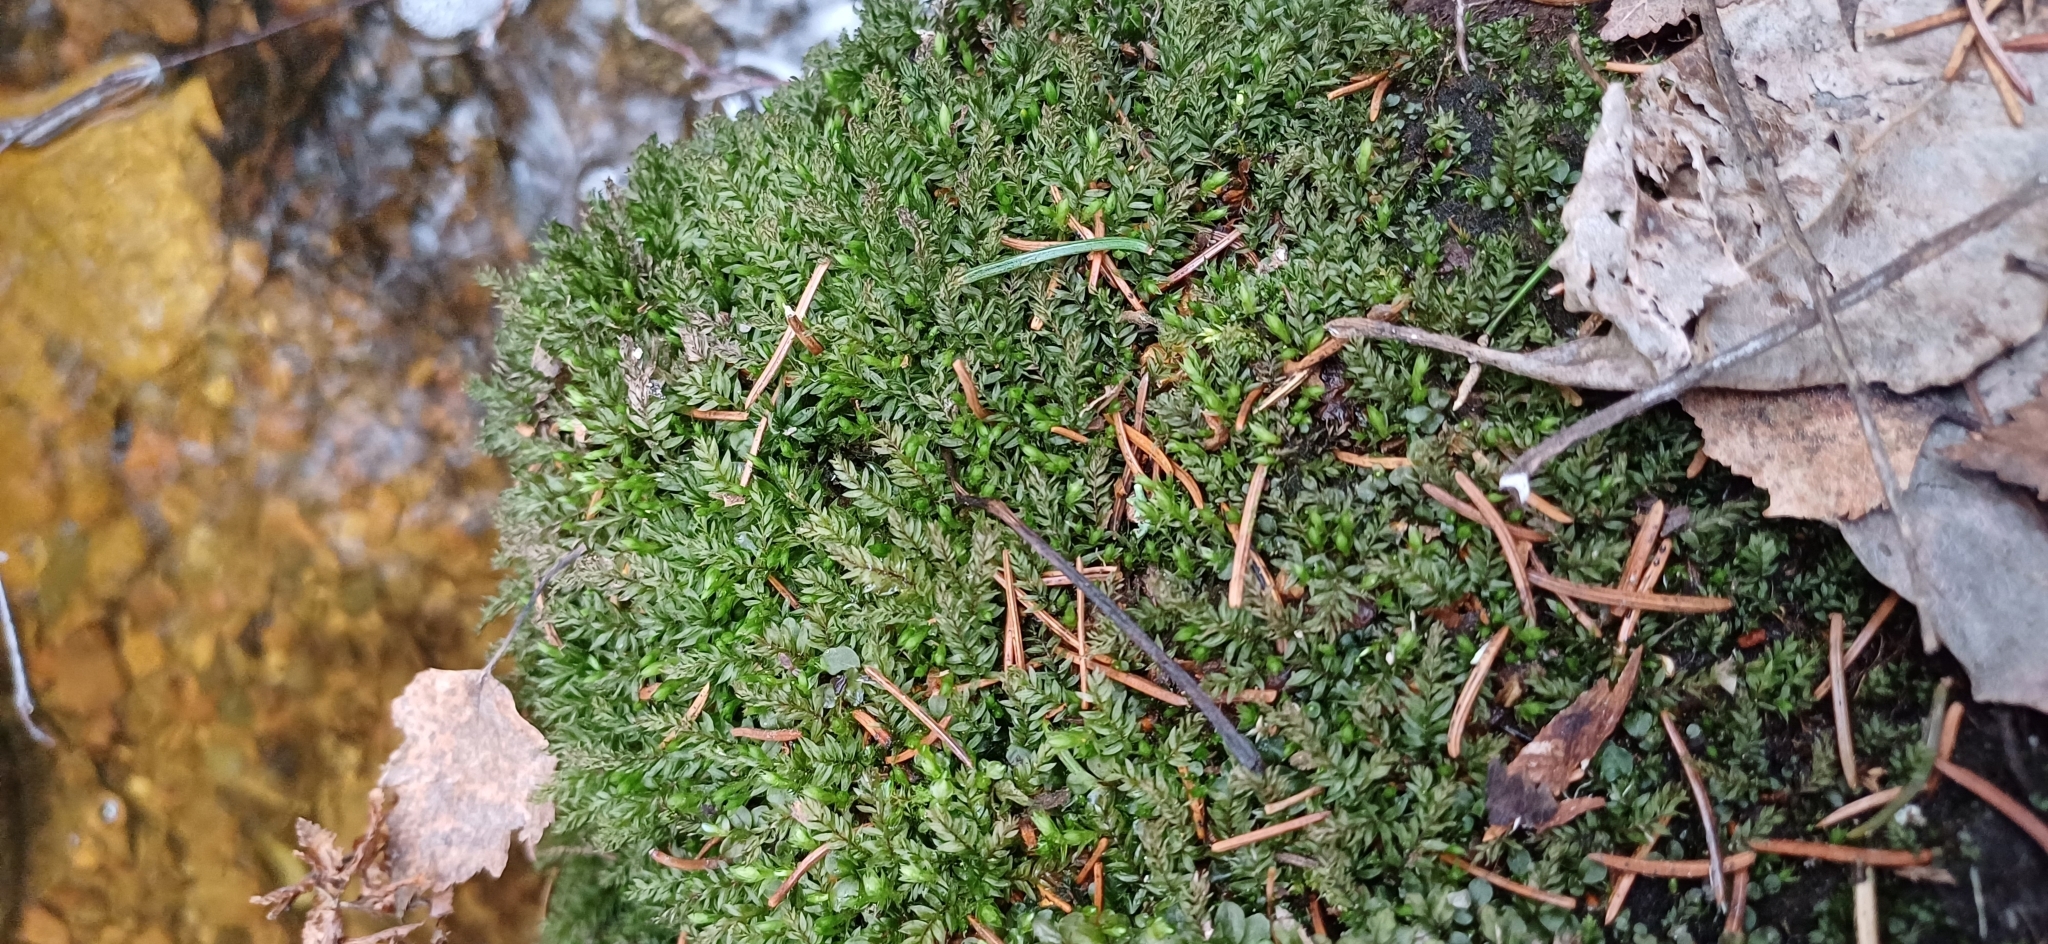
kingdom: Plantae
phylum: Bryophyta
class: Bryopsida
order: Bryales
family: Mniaceae
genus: Mnium
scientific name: Mnium hornum
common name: Swan's-neck leafy moss
